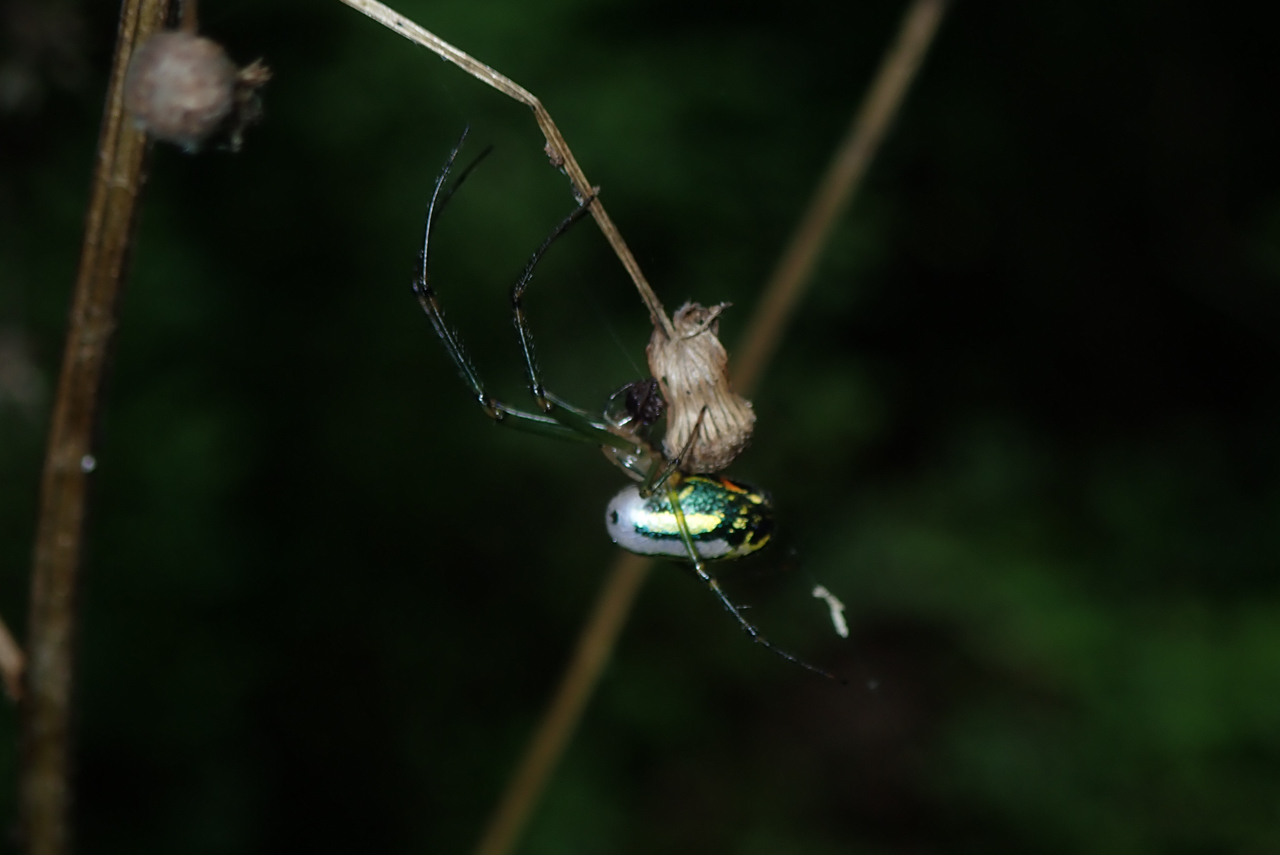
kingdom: Animalia
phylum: Arthropoda
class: Arachnida
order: Araneae
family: Tetragnathidae
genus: Leucauge
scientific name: Leucauge venusta
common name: Longjawed orb weavers
